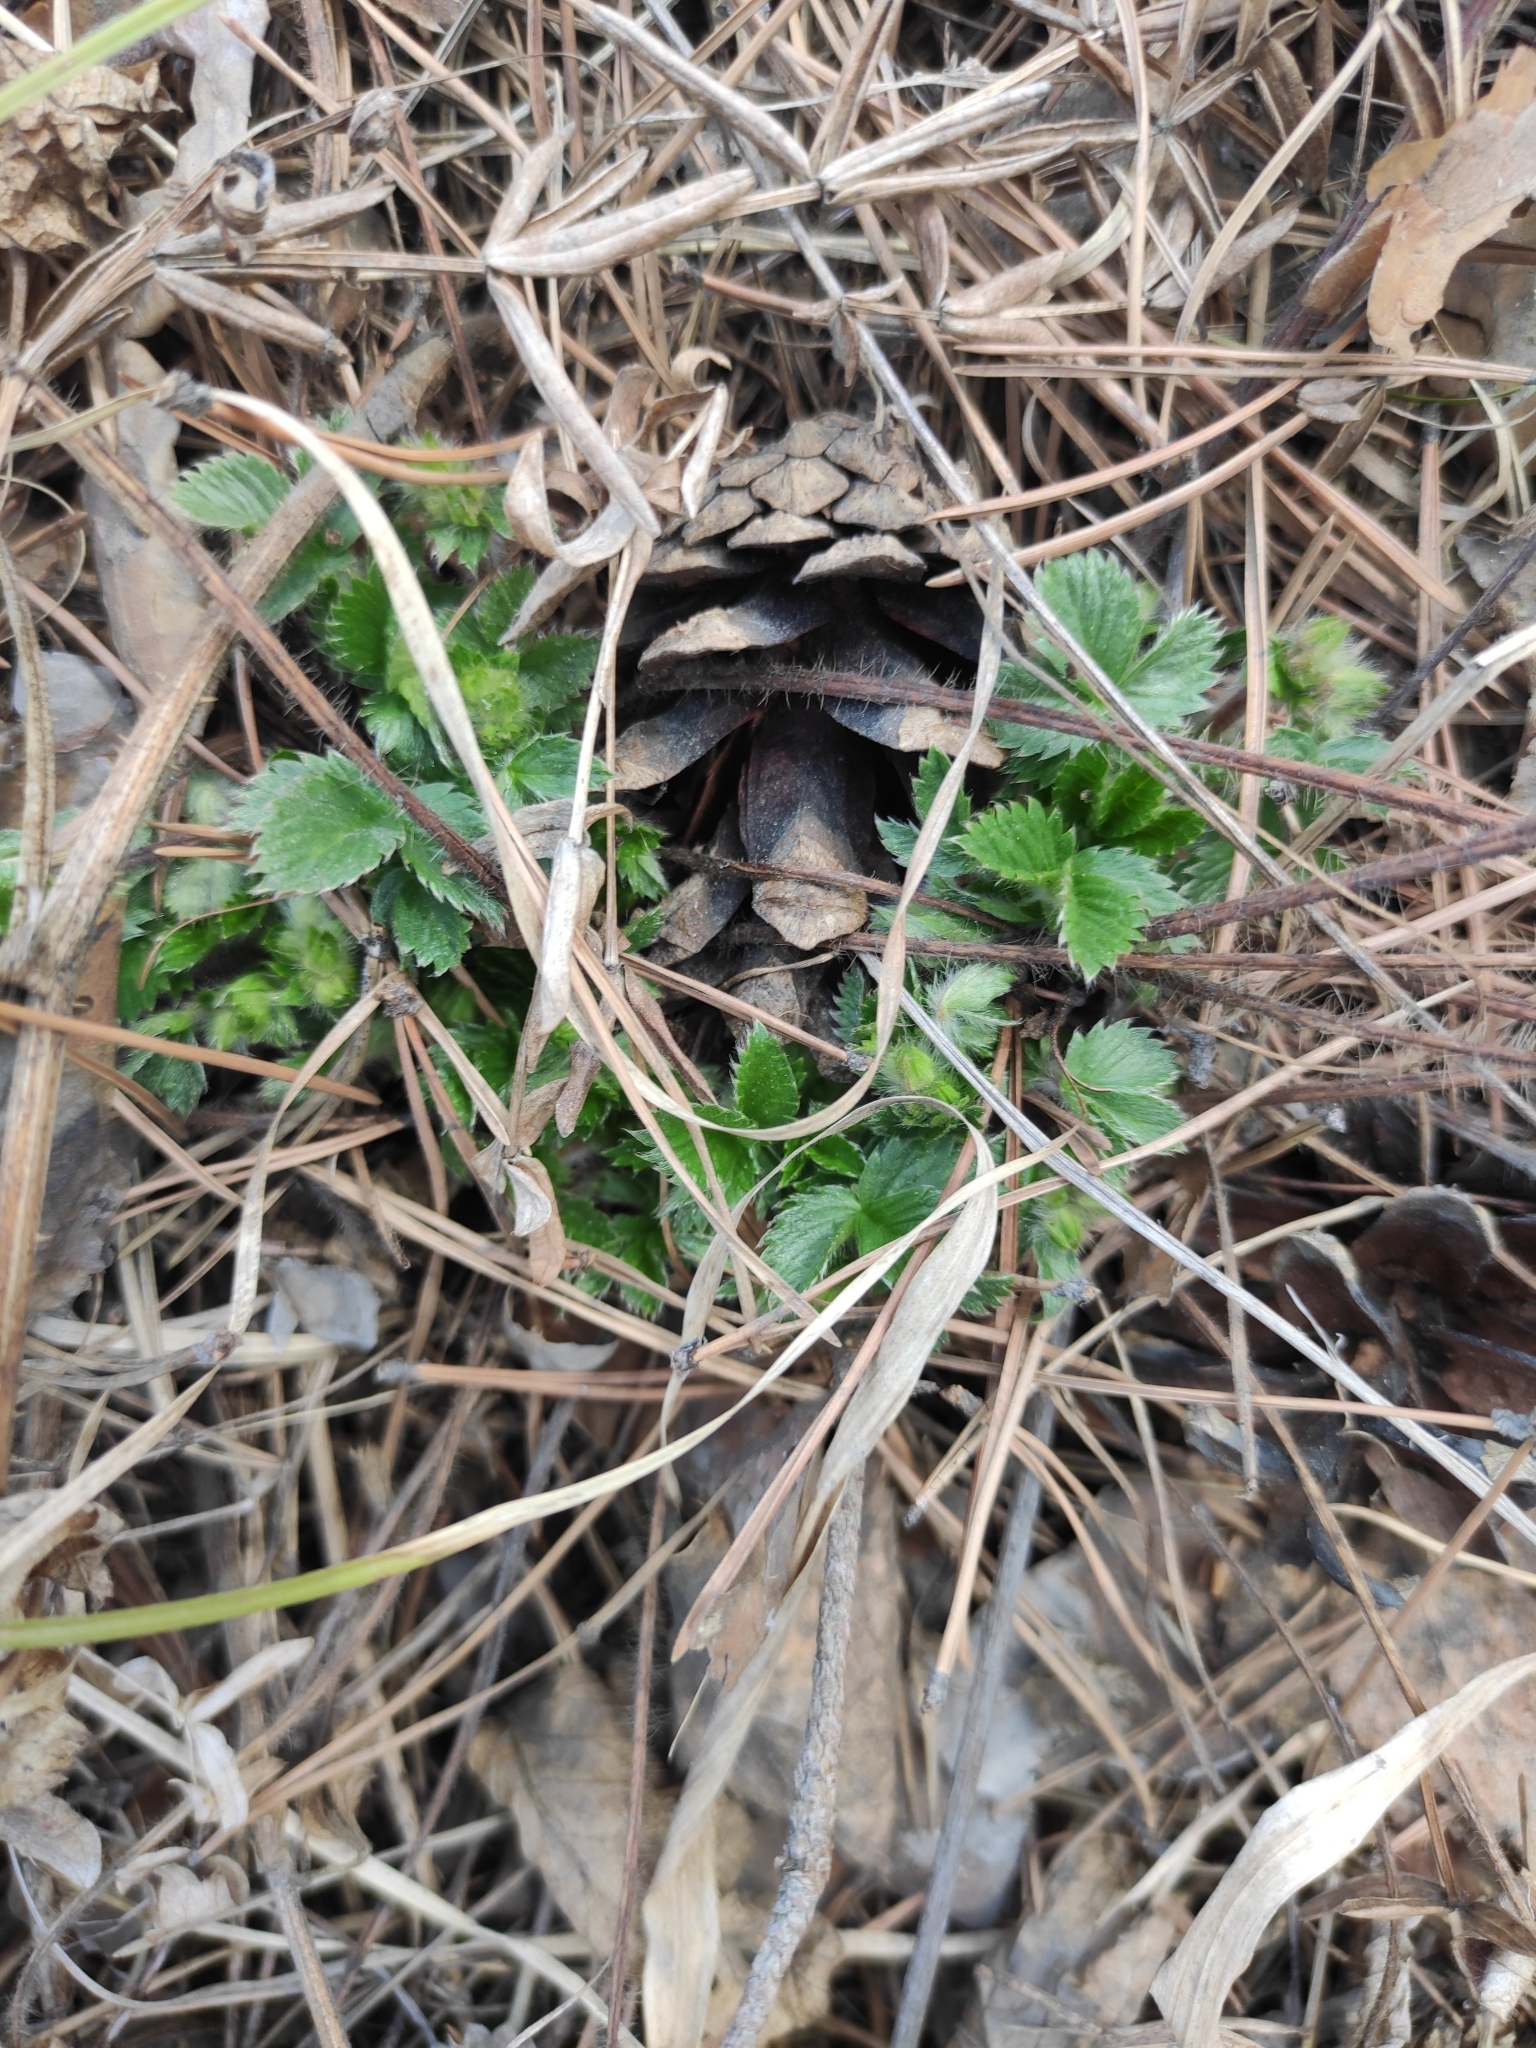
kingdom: Plantae
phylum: Tracheophyta
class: Magnoliopsida
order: Rosales
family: Rosaceae
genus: Potentilla
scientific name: Potentilla fragarioides
